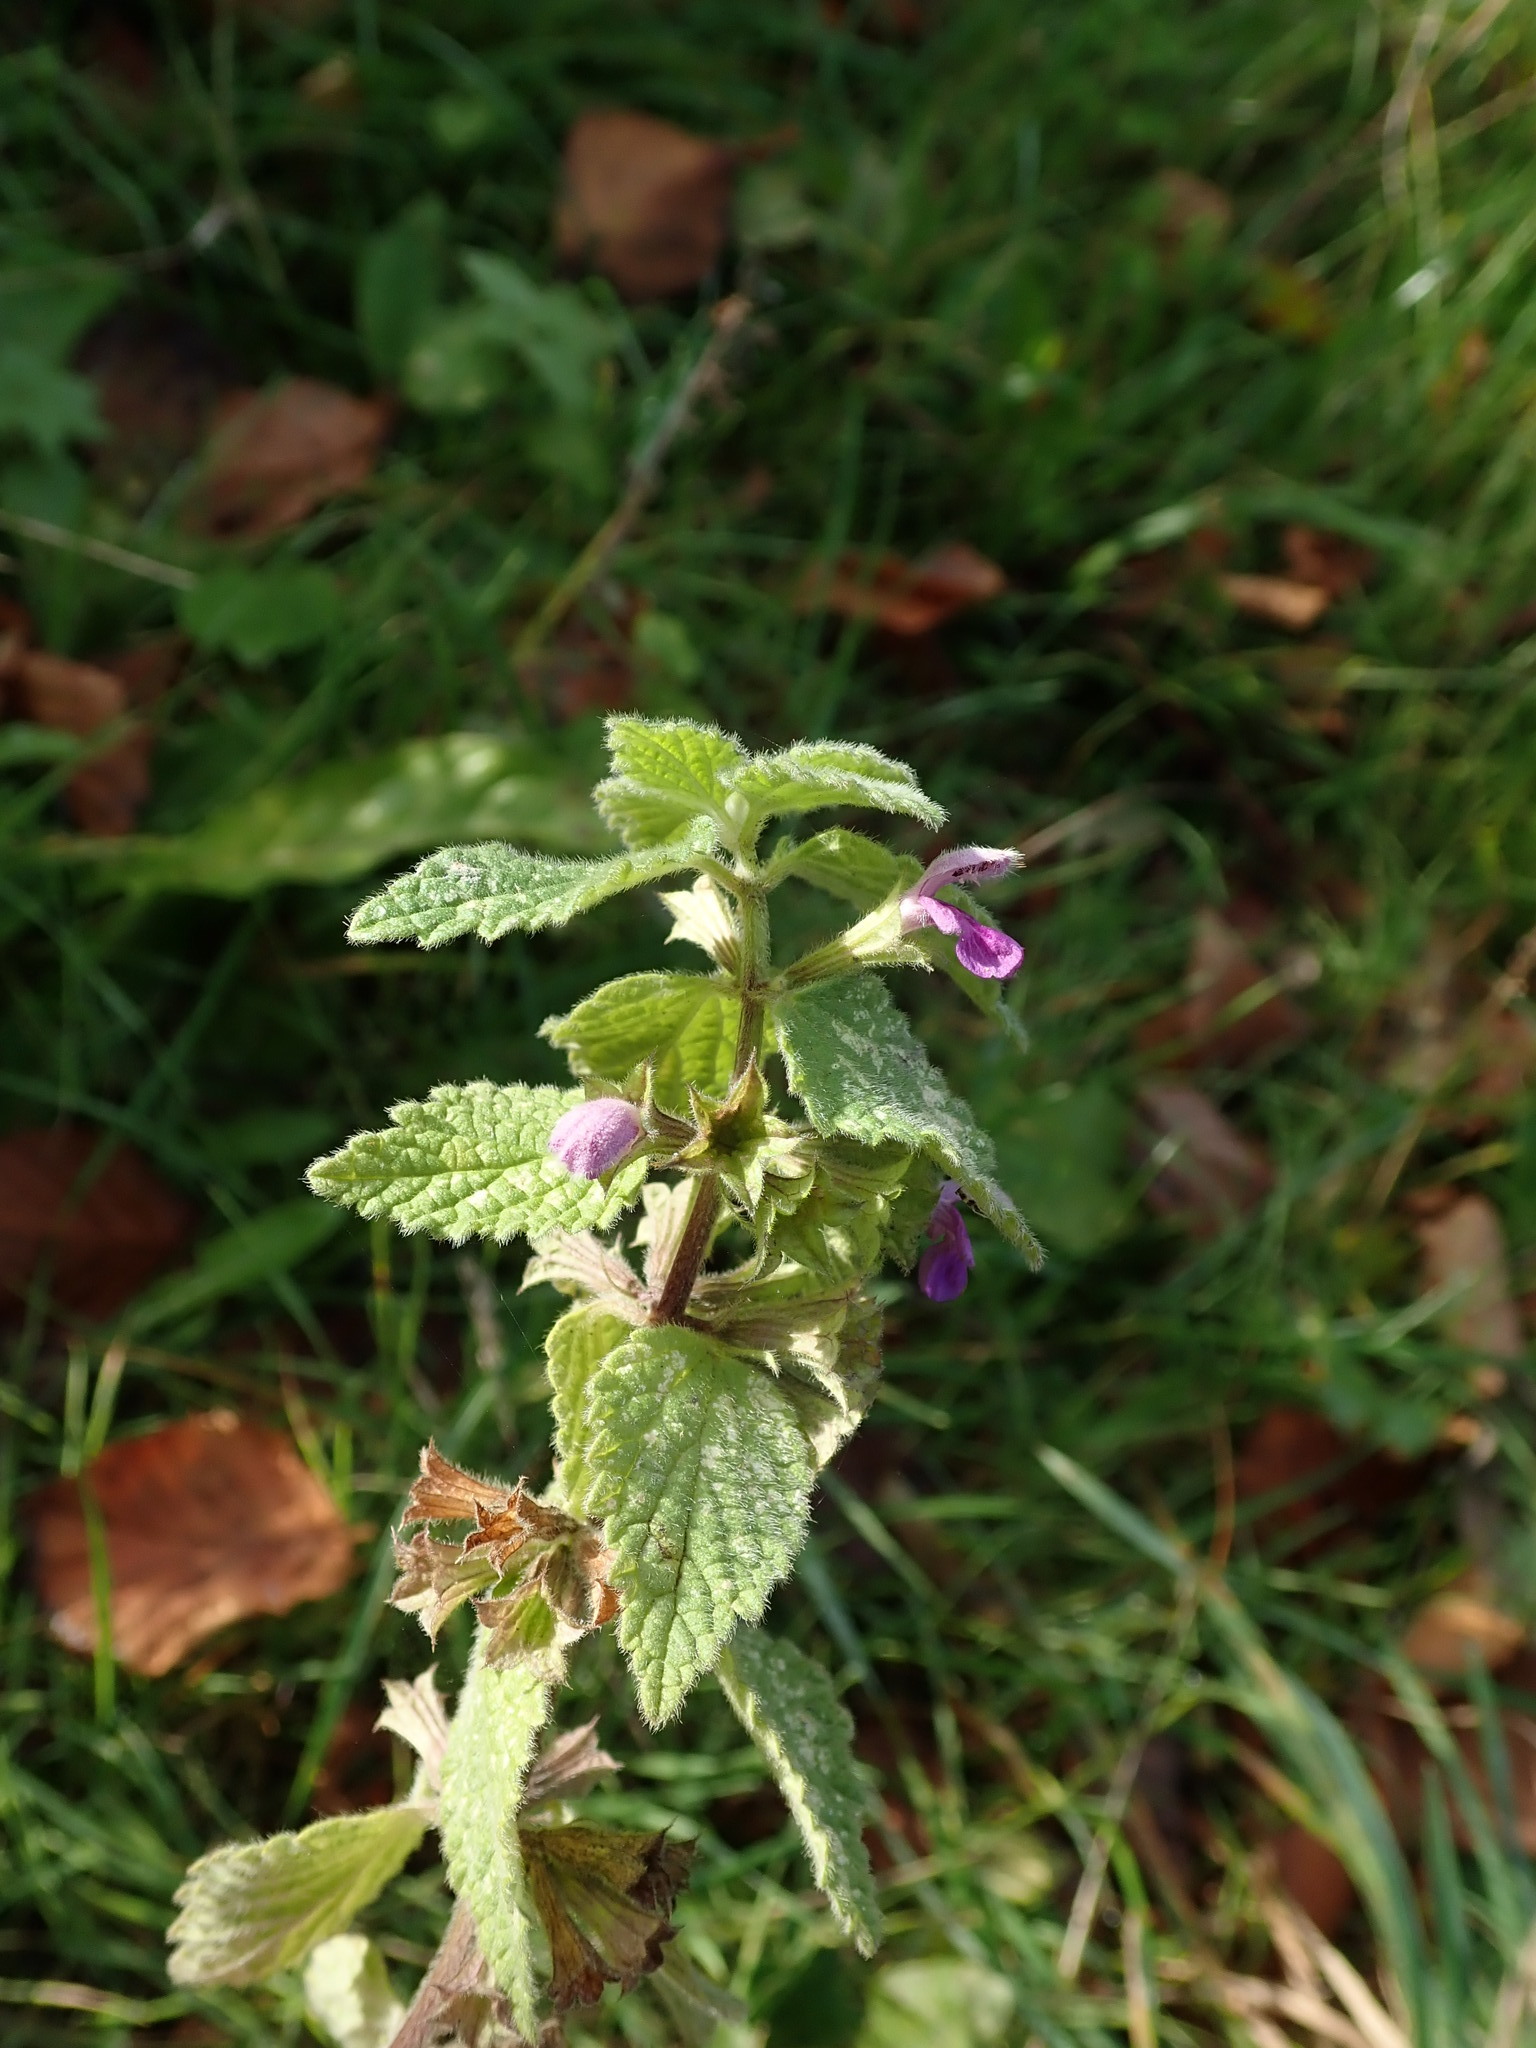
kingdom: Plantae
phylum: Tracheophyta
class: Magnoliopsida
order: Lamiales
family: Lamiaceae
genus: Ballota
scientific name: Ballota nigra
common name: Black horehound
